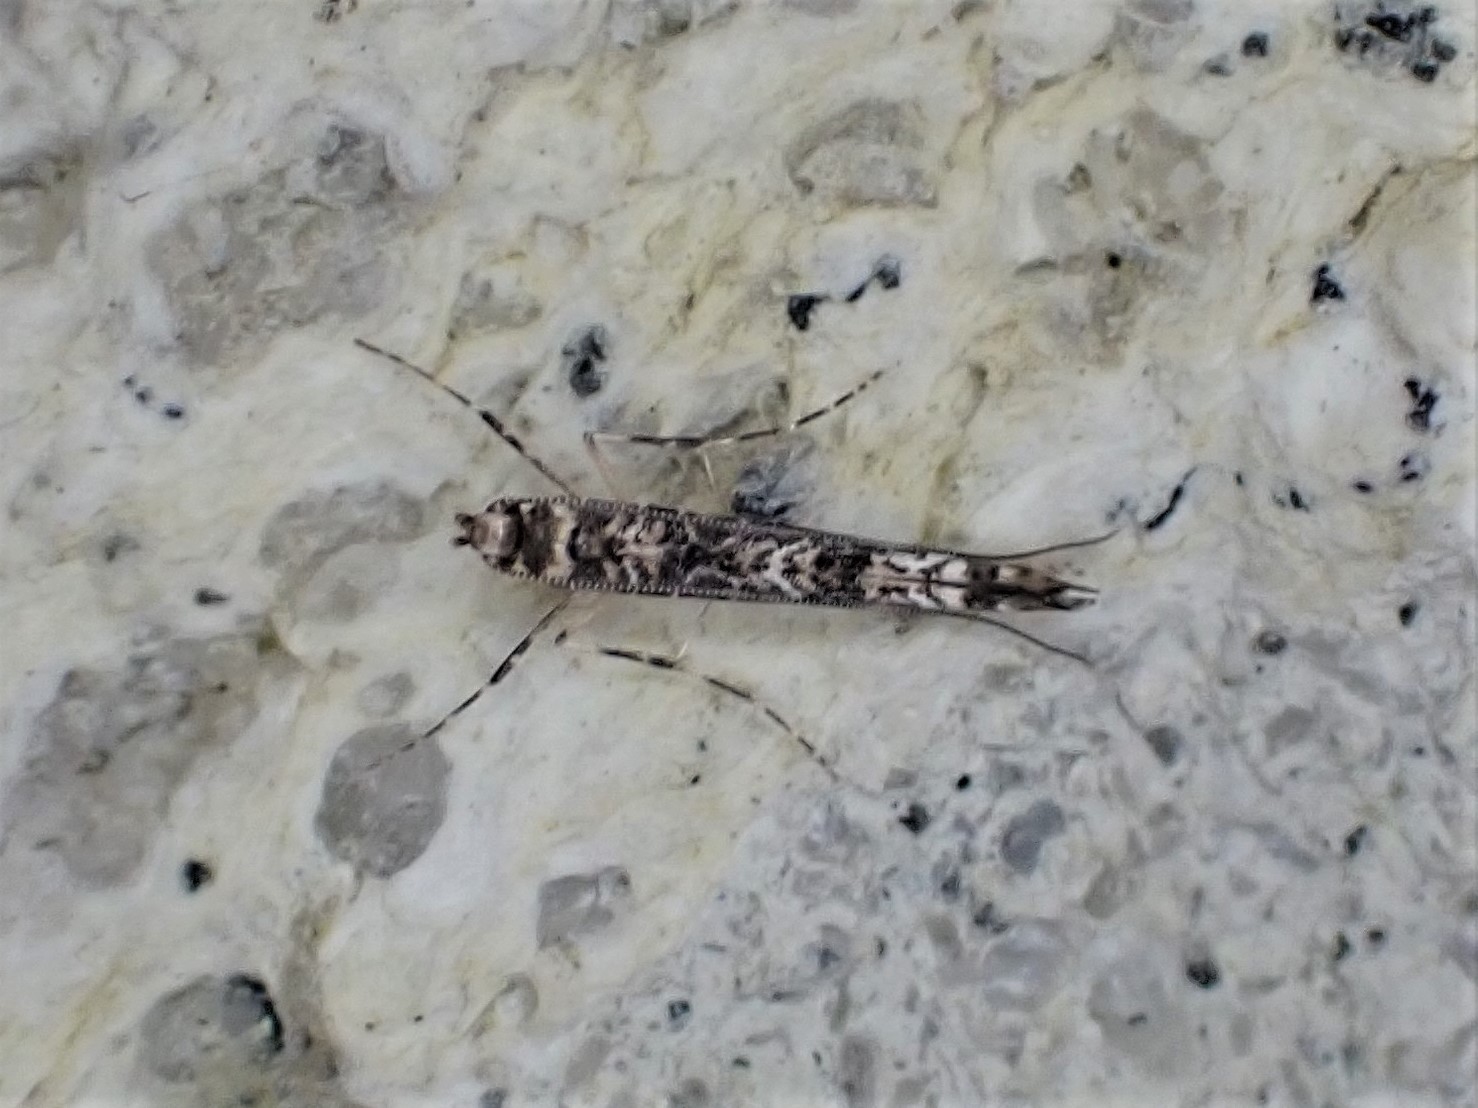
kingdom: Animalia
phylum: Arthropoda
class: Insecta
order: Lepidoptera
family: Gracillariidae
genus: Conopomorpha
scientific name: Conopomorpha cyanospila
